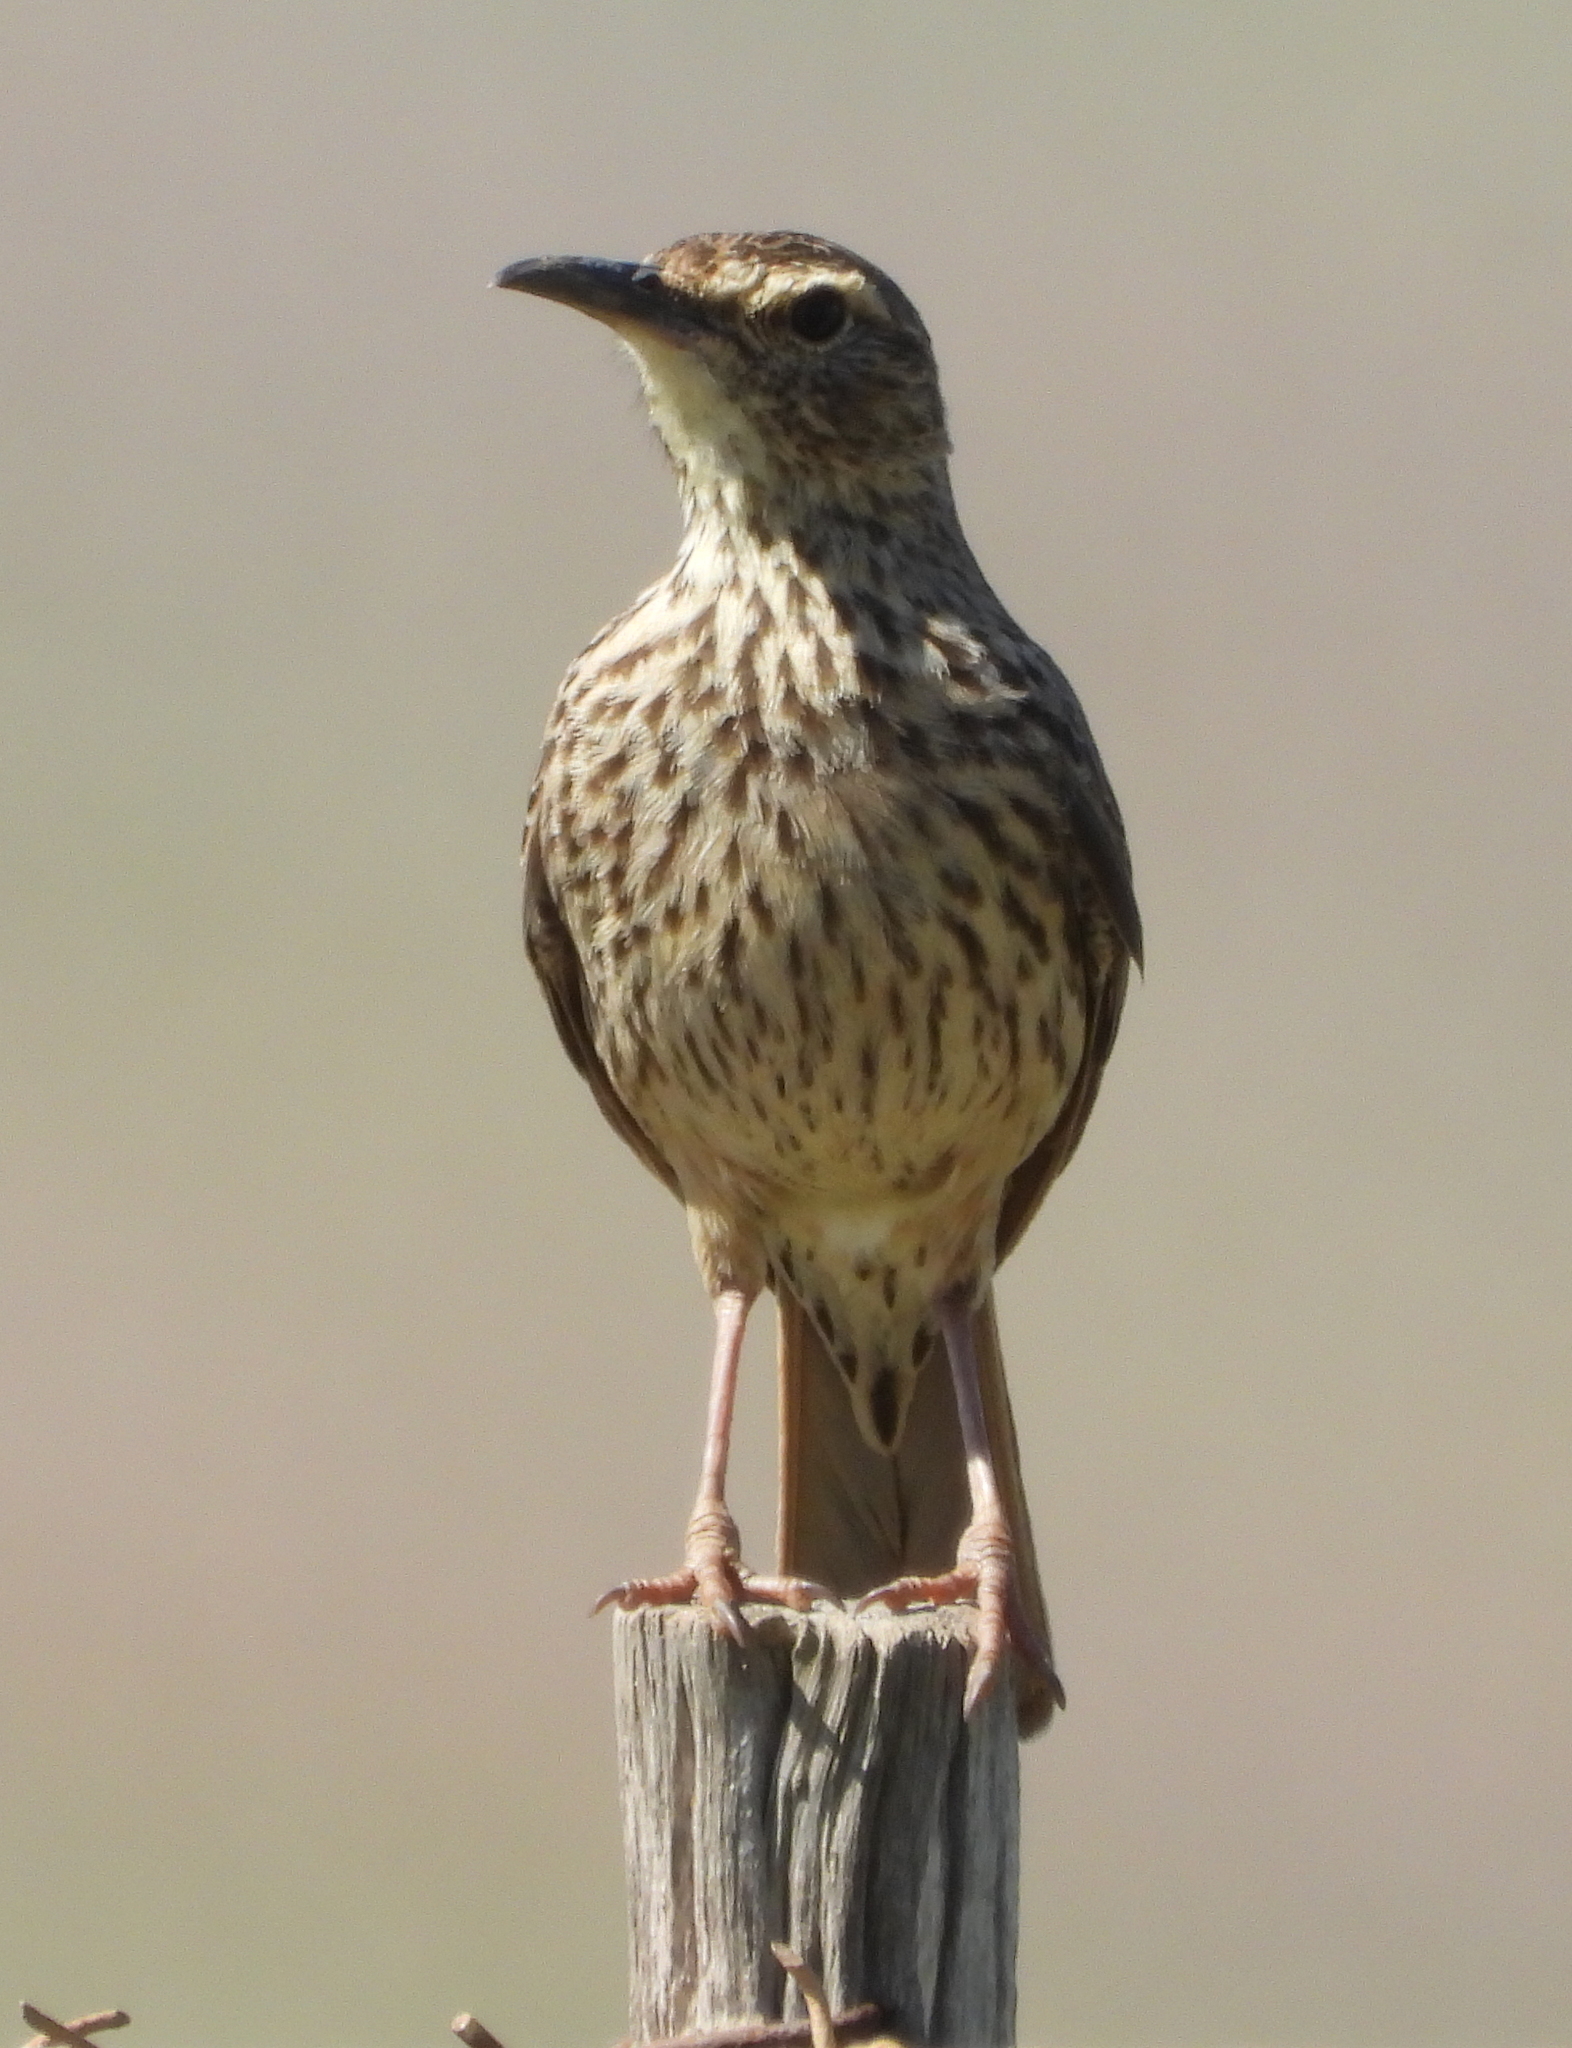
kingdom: Animalia
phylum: Chordata
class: Aves
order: Passeriformes
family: Alaudidae
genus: Certhilauda
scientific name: Certhilauda curvirostris
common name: Cape long-billed lark
